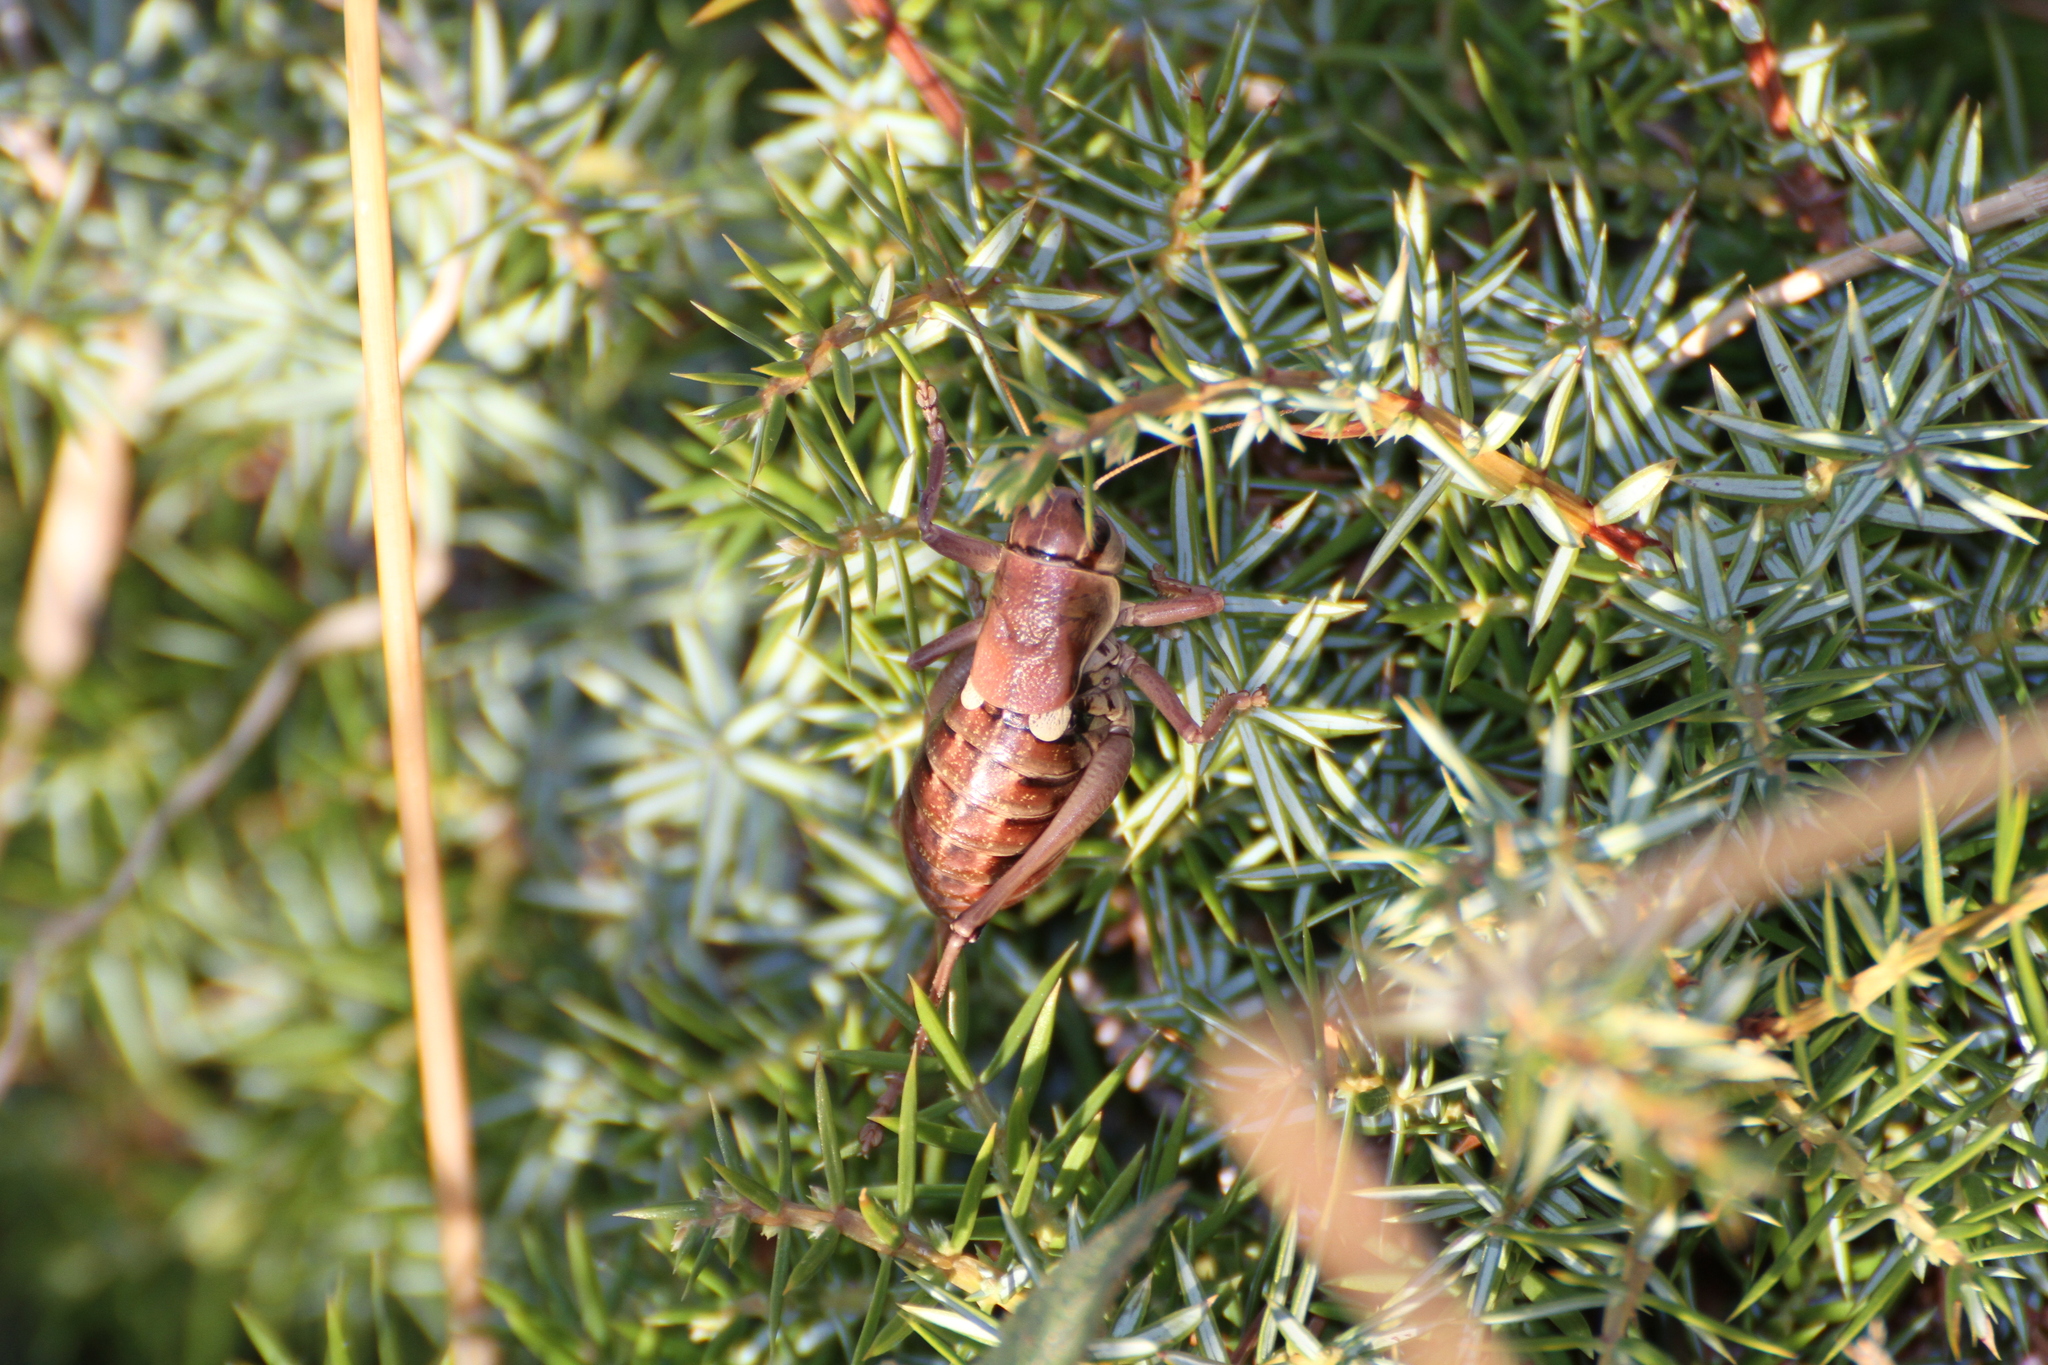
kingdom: Animalia
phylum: Arthropoda
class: Insecta
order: Orthoptera
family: Tettigoniidae
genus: Anonconotus
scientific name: Anonconotus ghilianii
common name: Ghiliani's alpine bush-cricket
